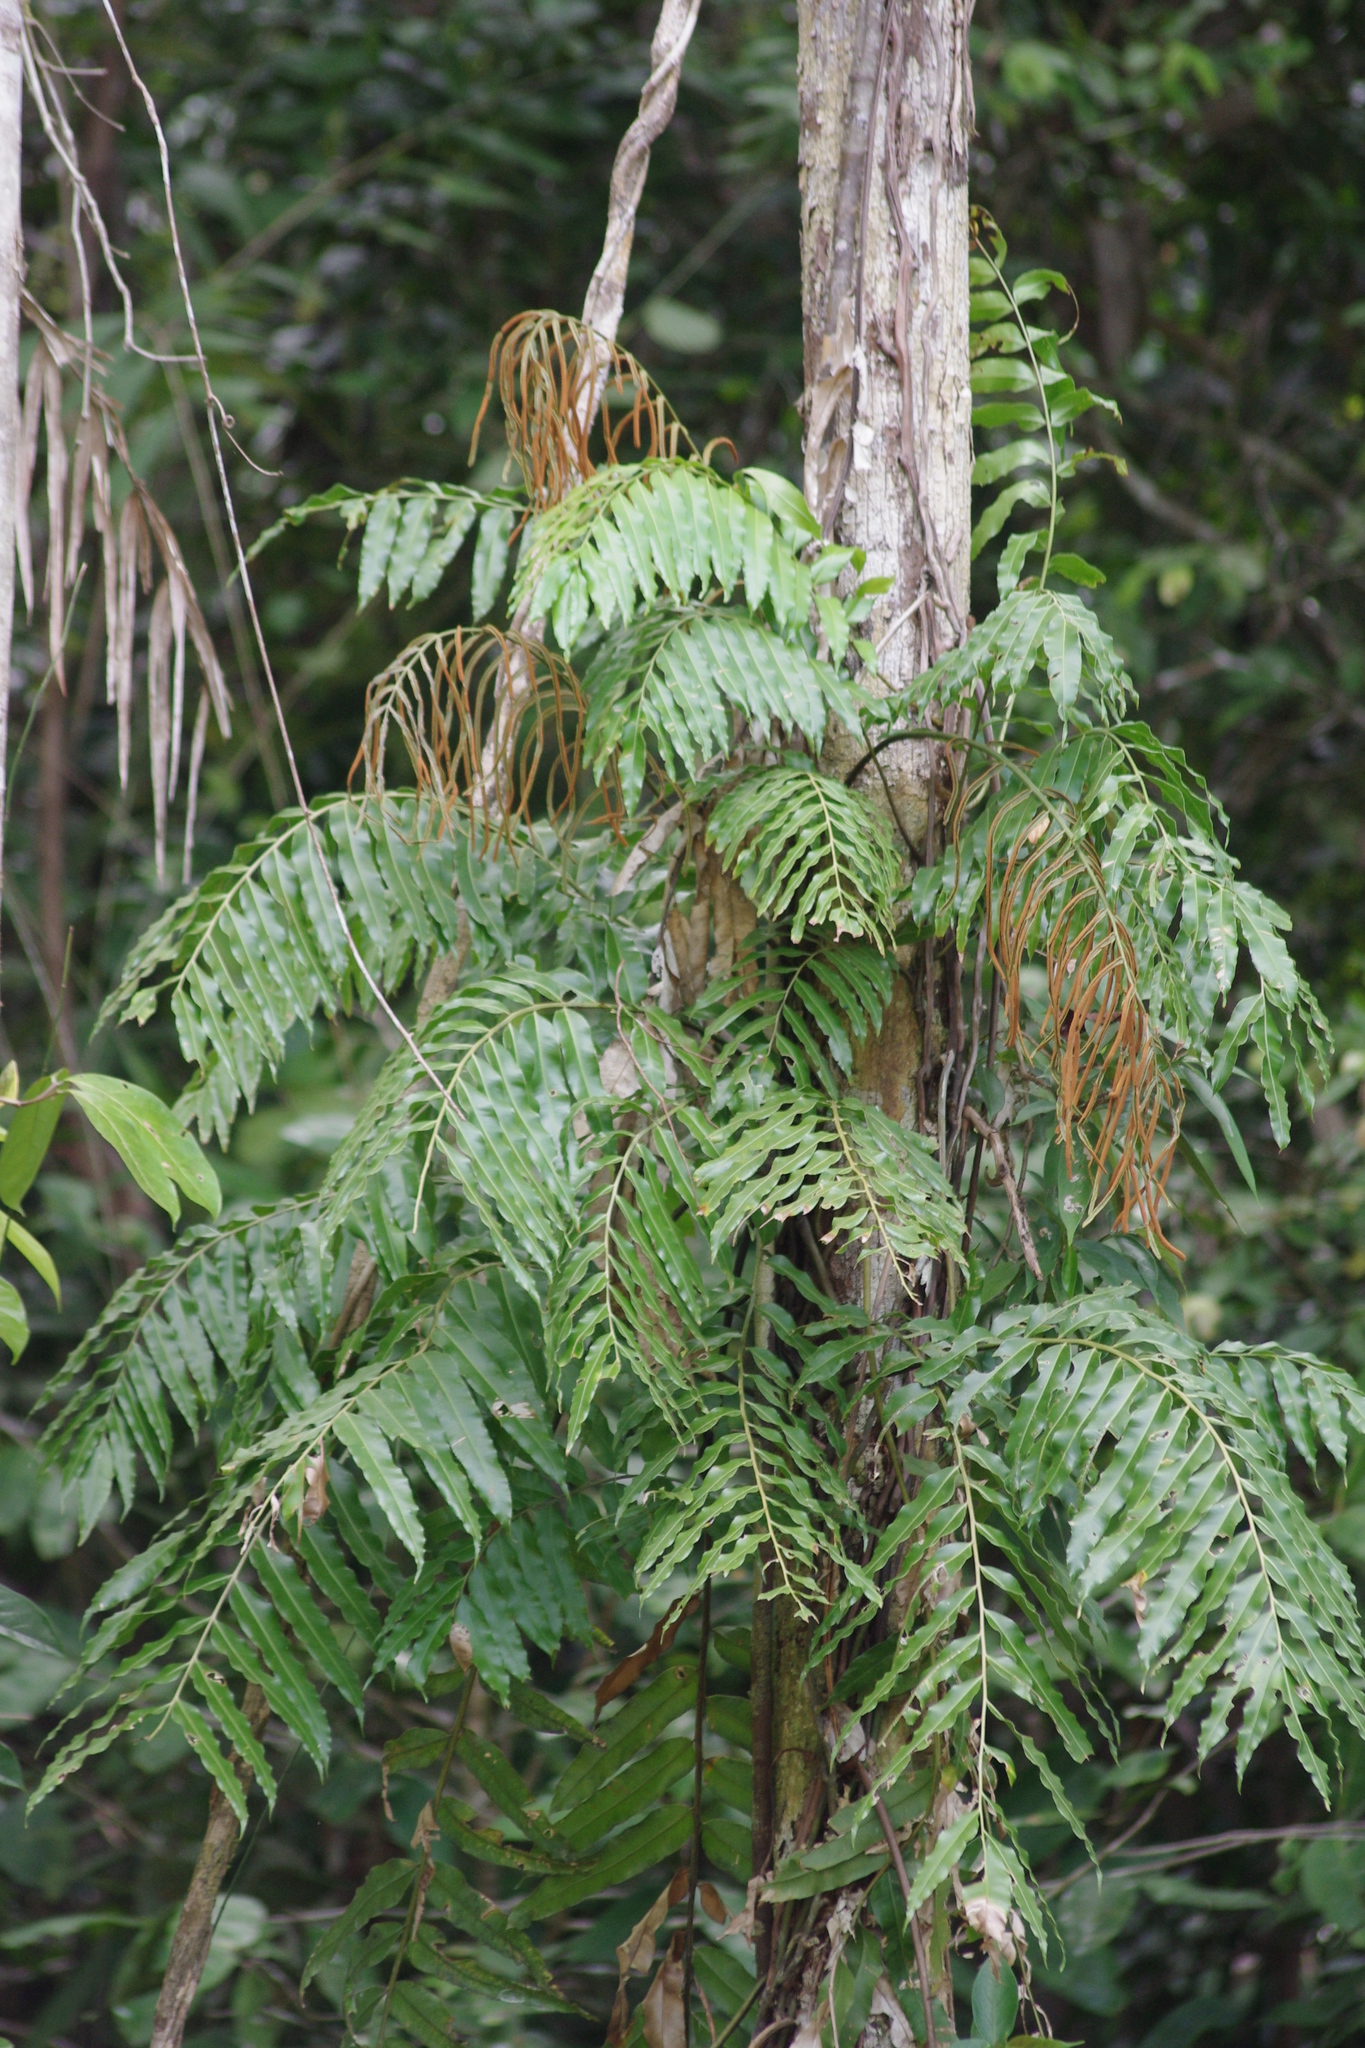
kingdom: Plantae
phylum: Tracheophyta
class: Polypodiopsida
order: Polypodiales
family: Blechnaceae
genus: Stenochlaena
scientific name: Stenochlaena palustris
